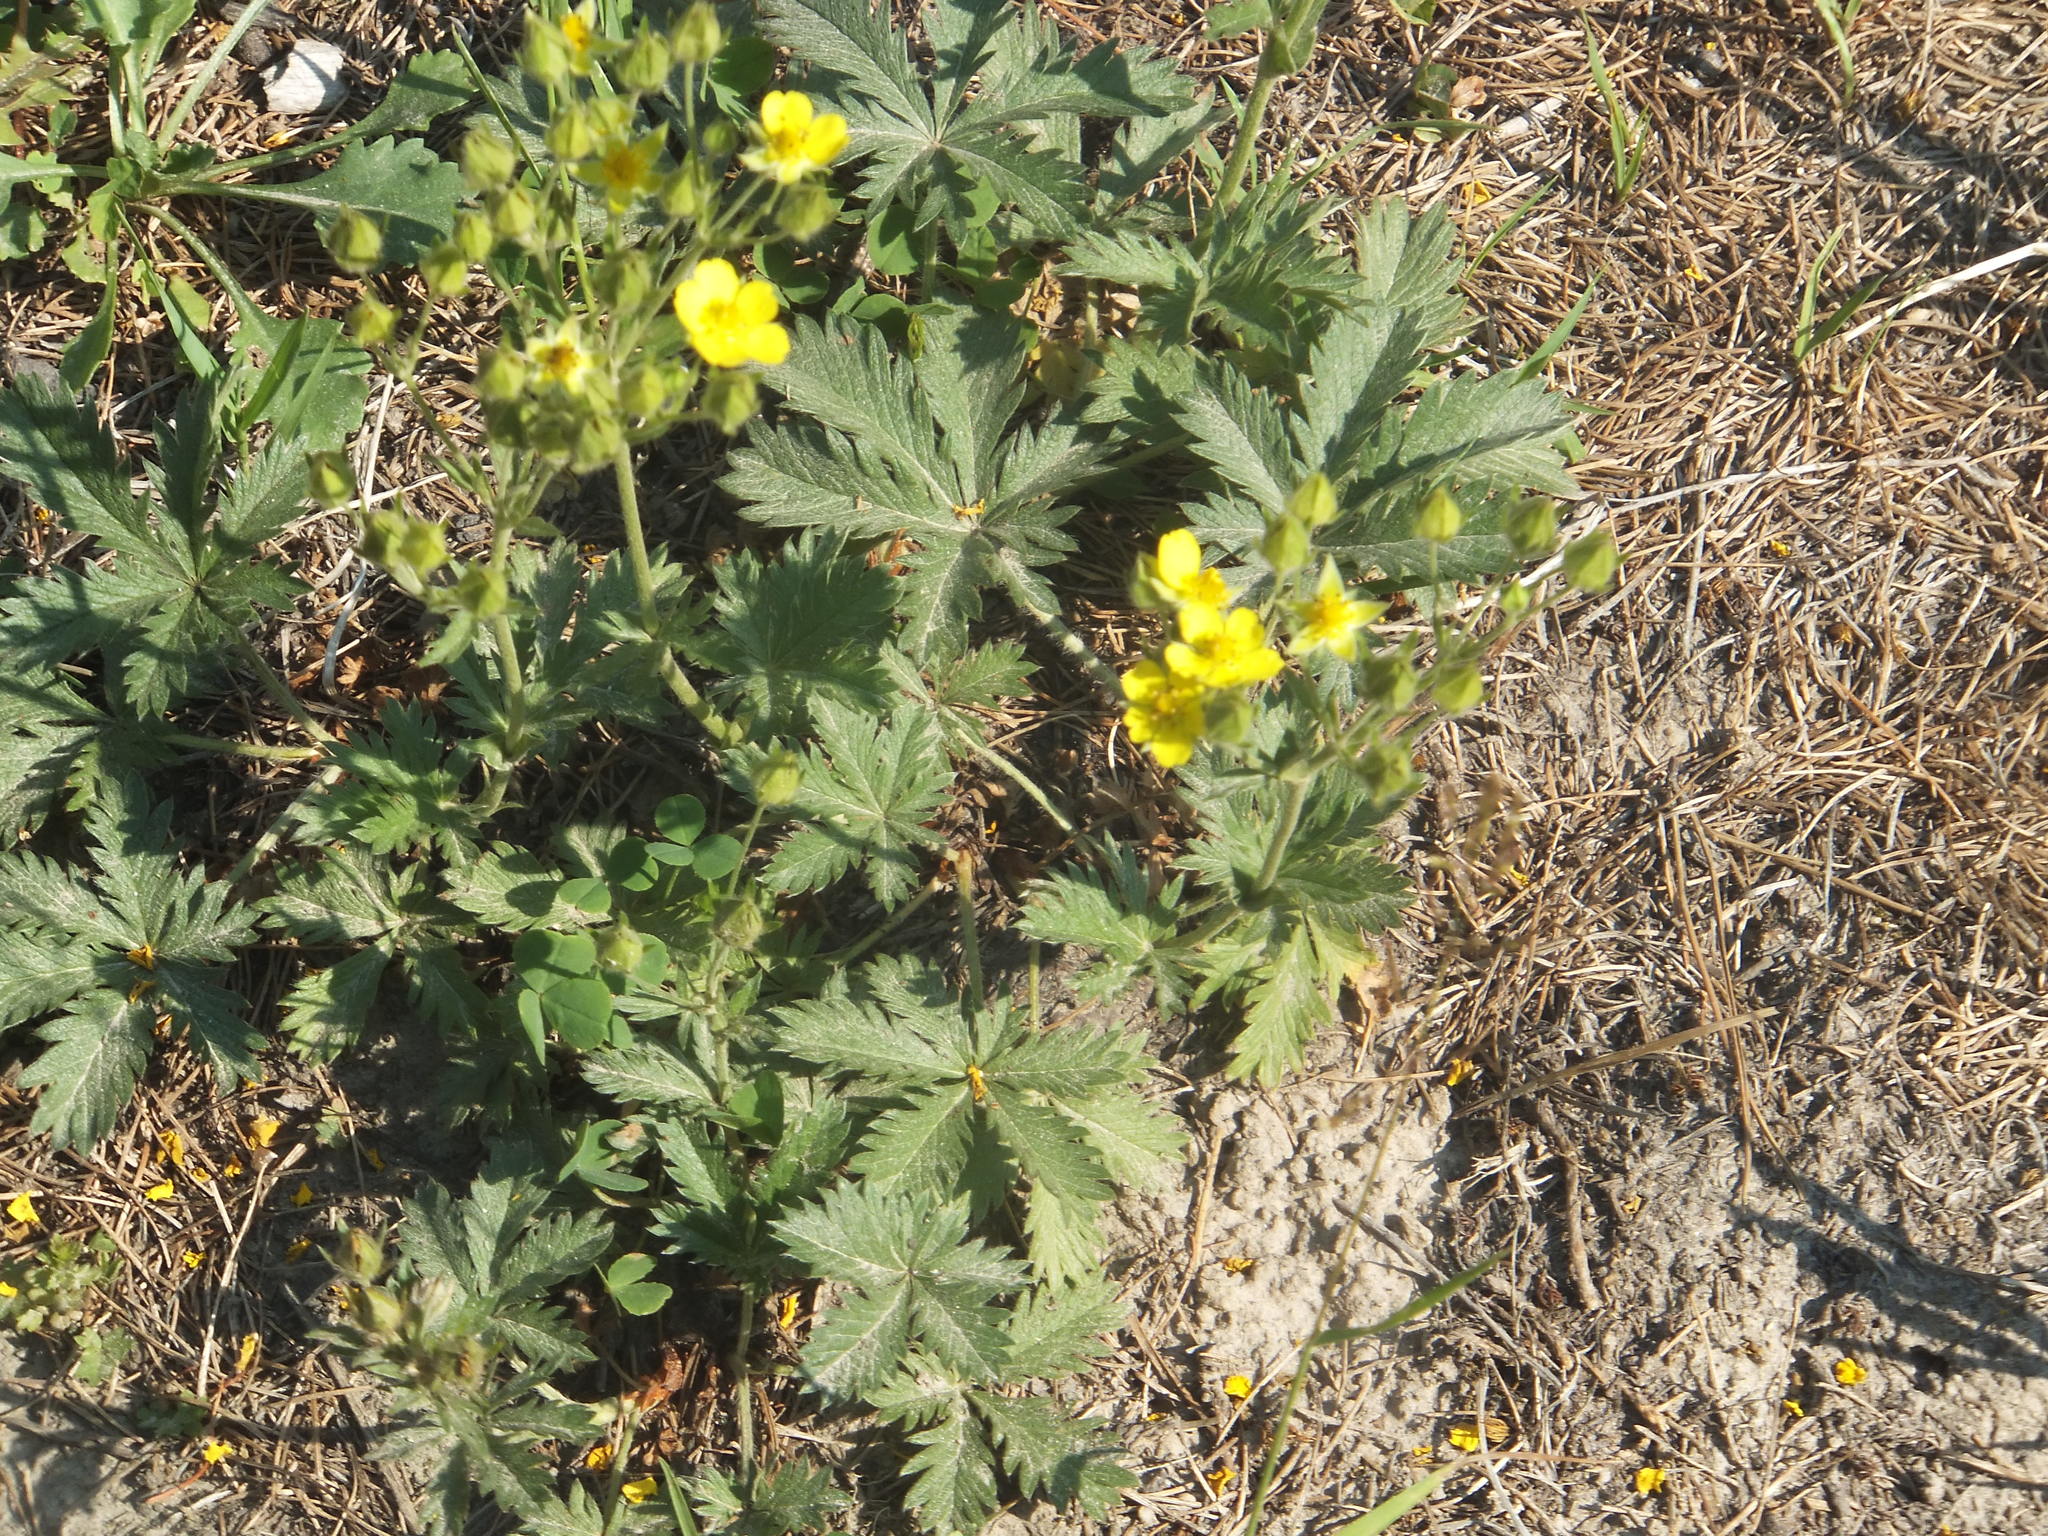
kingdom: Plantae
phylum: Tracheophyta
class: Magnoliopsida
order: Rosales
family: Rosaceae
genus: Potentilla
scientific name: Potentilla gracilis
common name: Graceful cinquefoil
